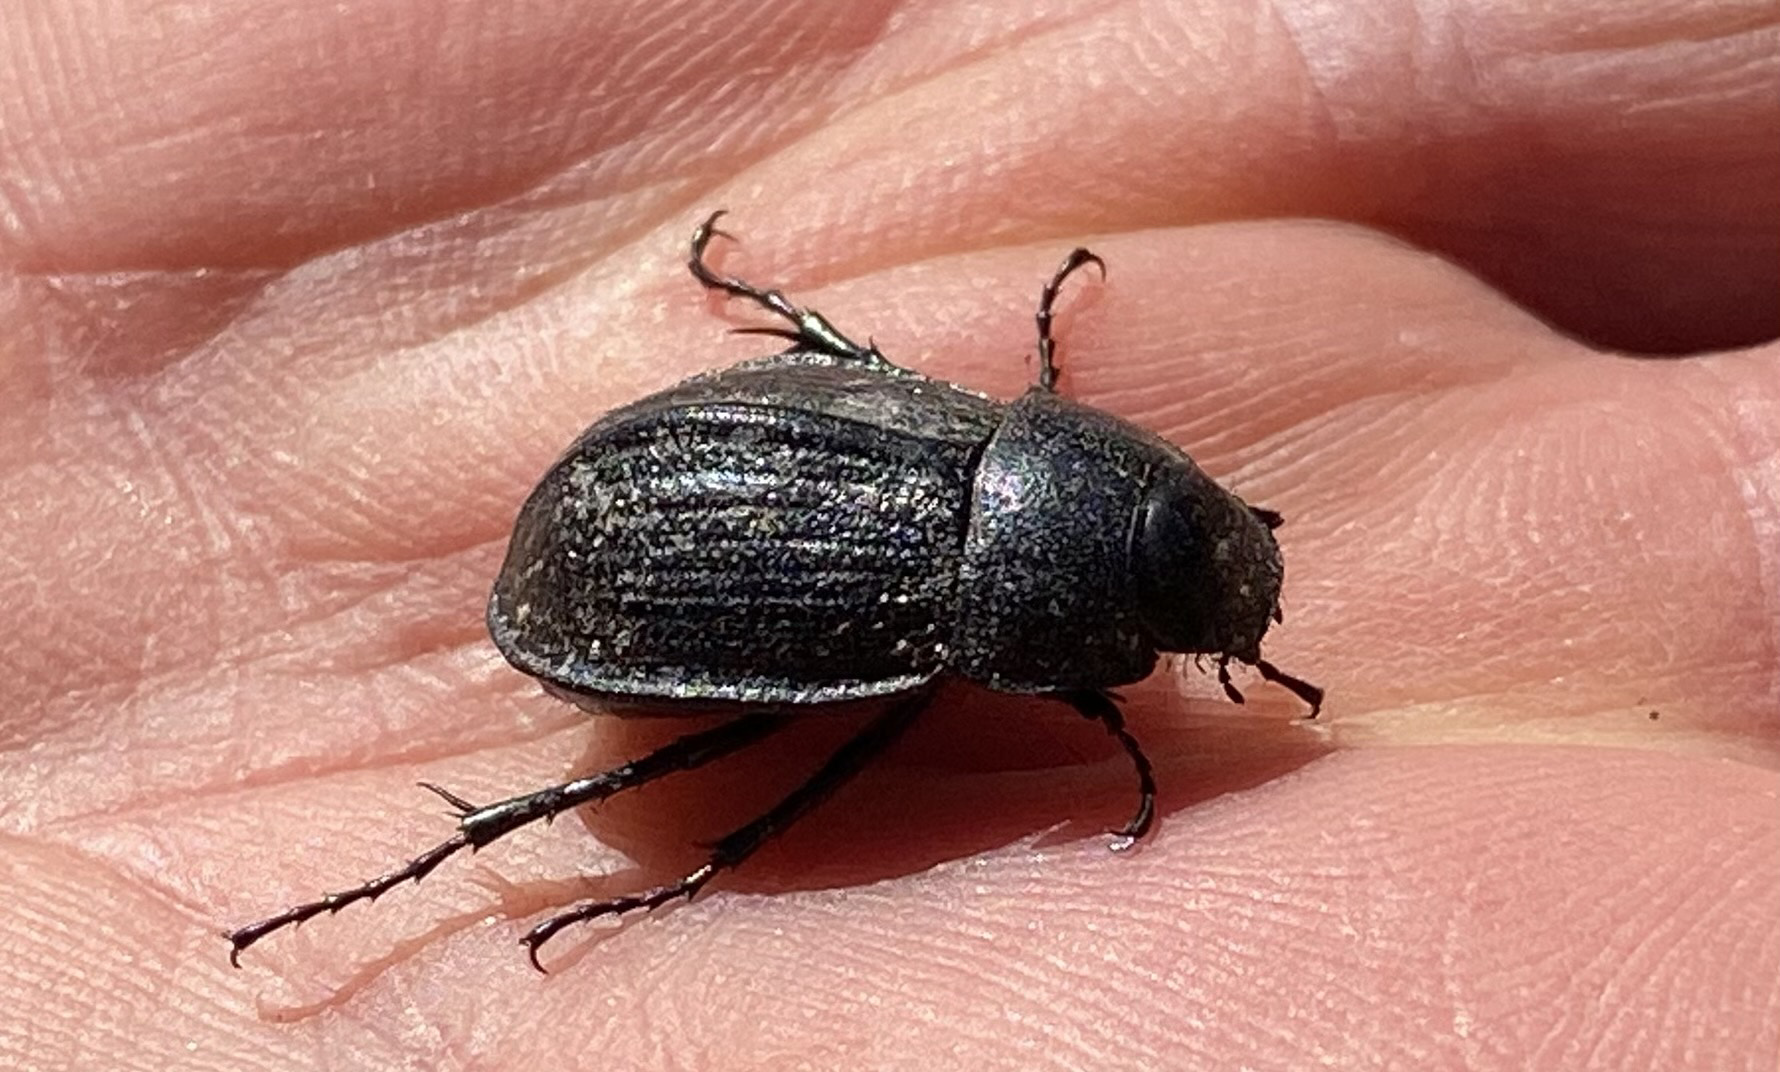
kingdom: Animalia
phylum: Arthropoda
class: Insecta
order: Coleoptera
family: Scarabaeidae
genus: Scythrodes
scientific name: Scythrodes squalidus
